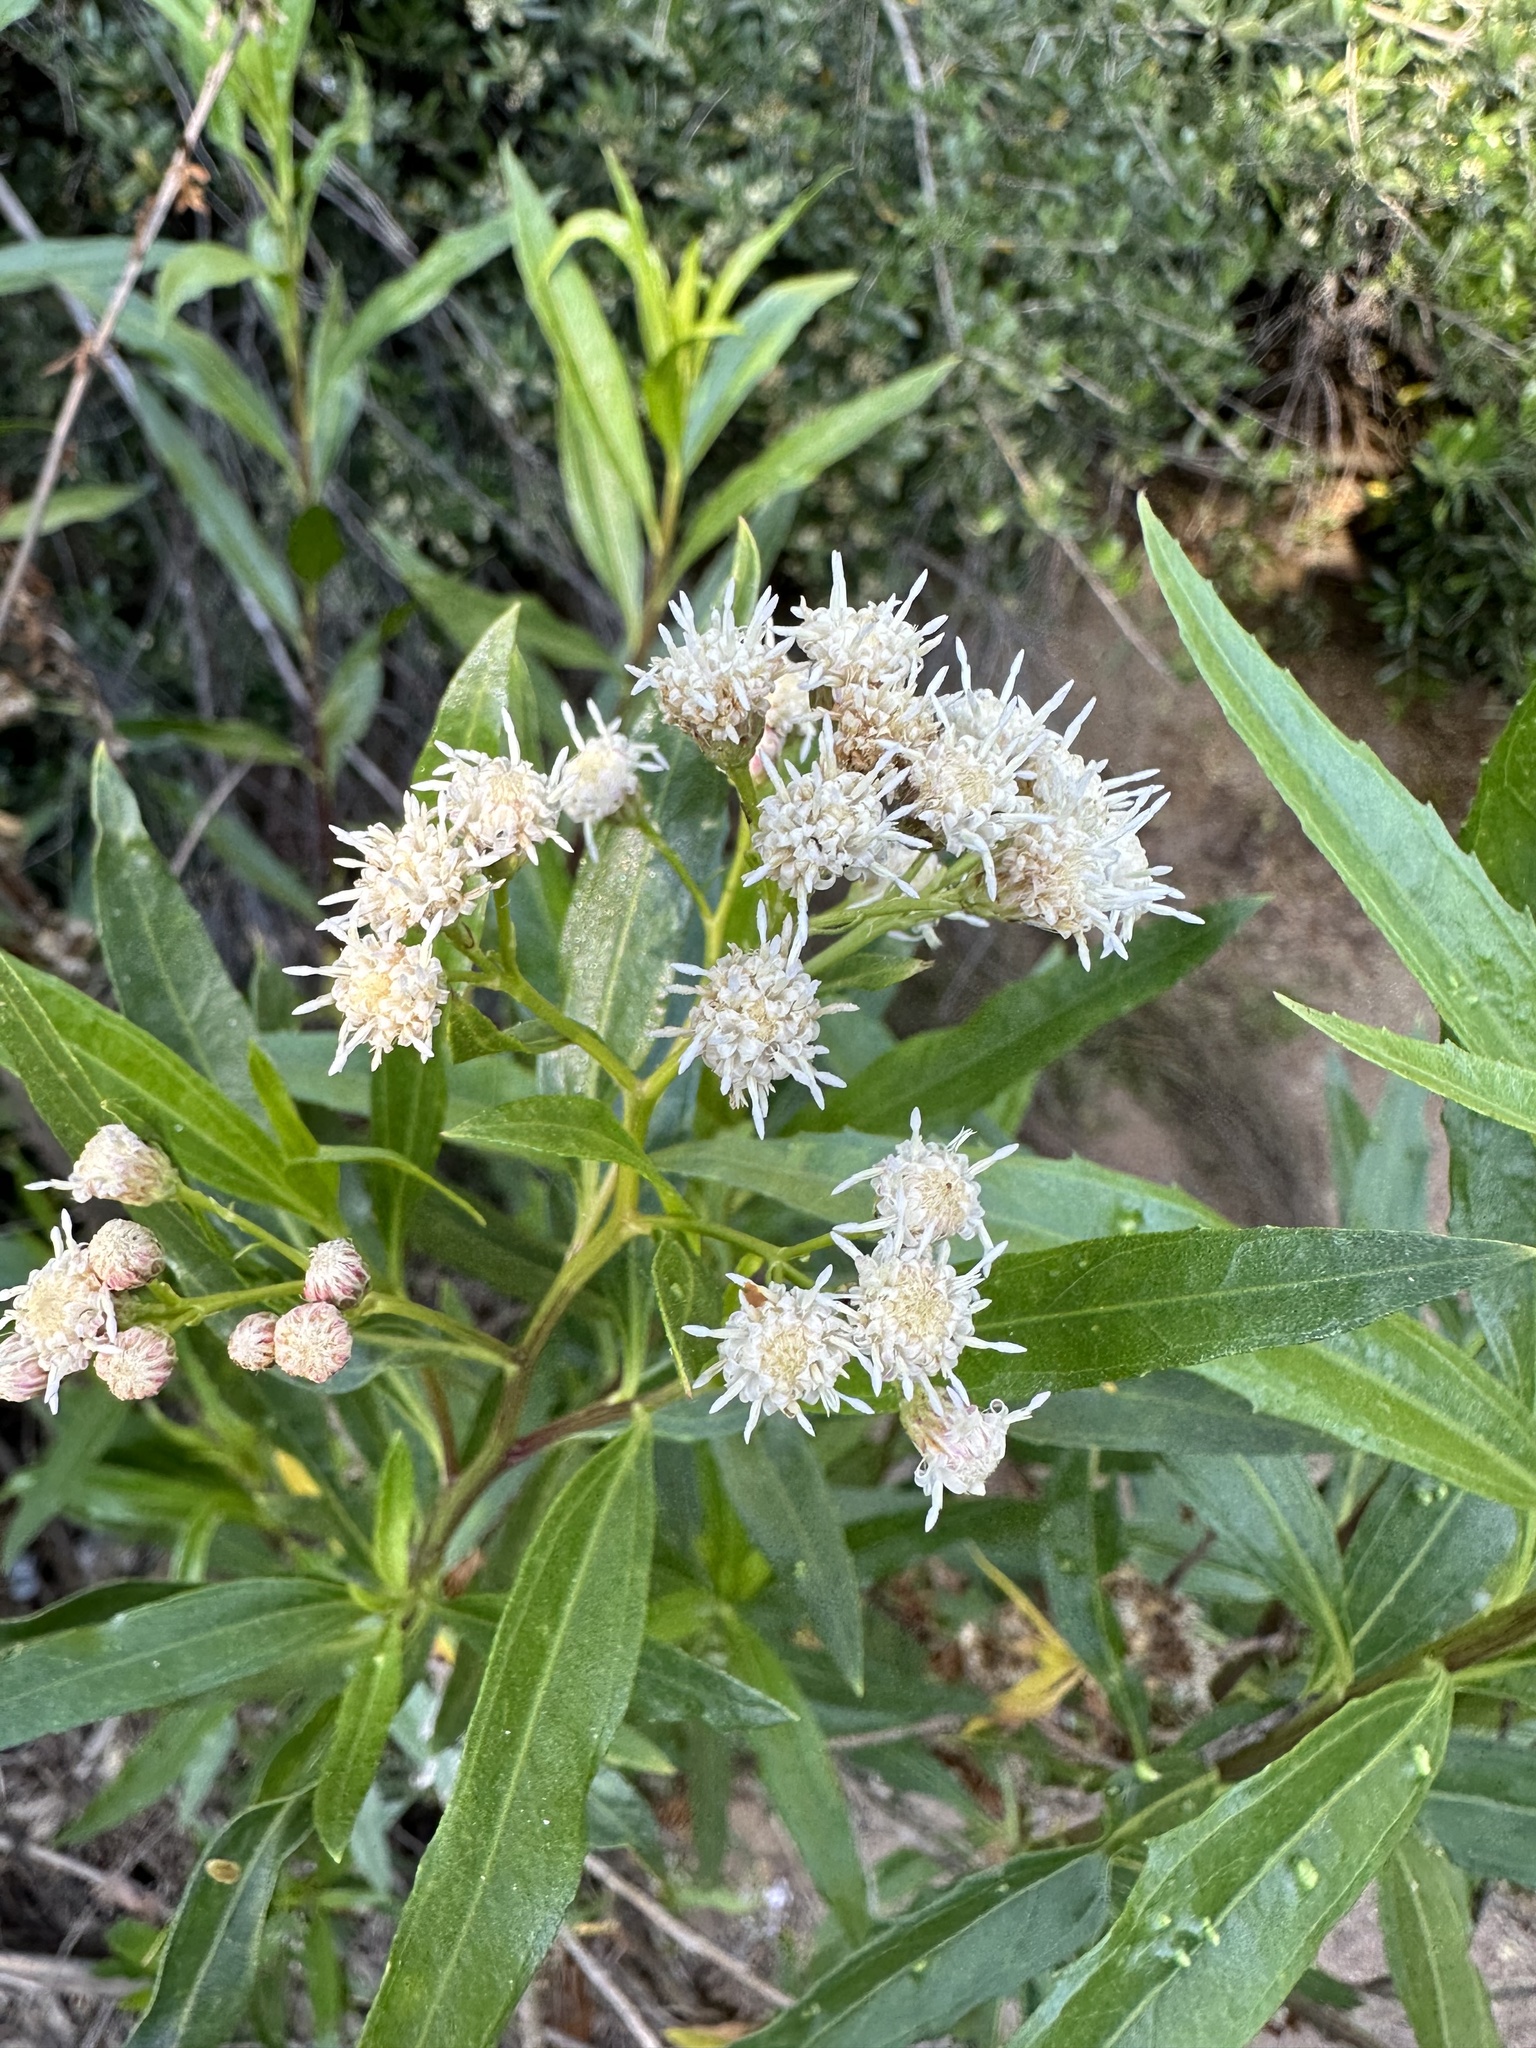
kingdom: Plantae
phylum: Tracheophyta
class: Magnoliopsida
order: Asterales
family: Asteraceae
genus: Baccharis
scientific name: Baccharis salicifolia
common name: Sticky baccharis
